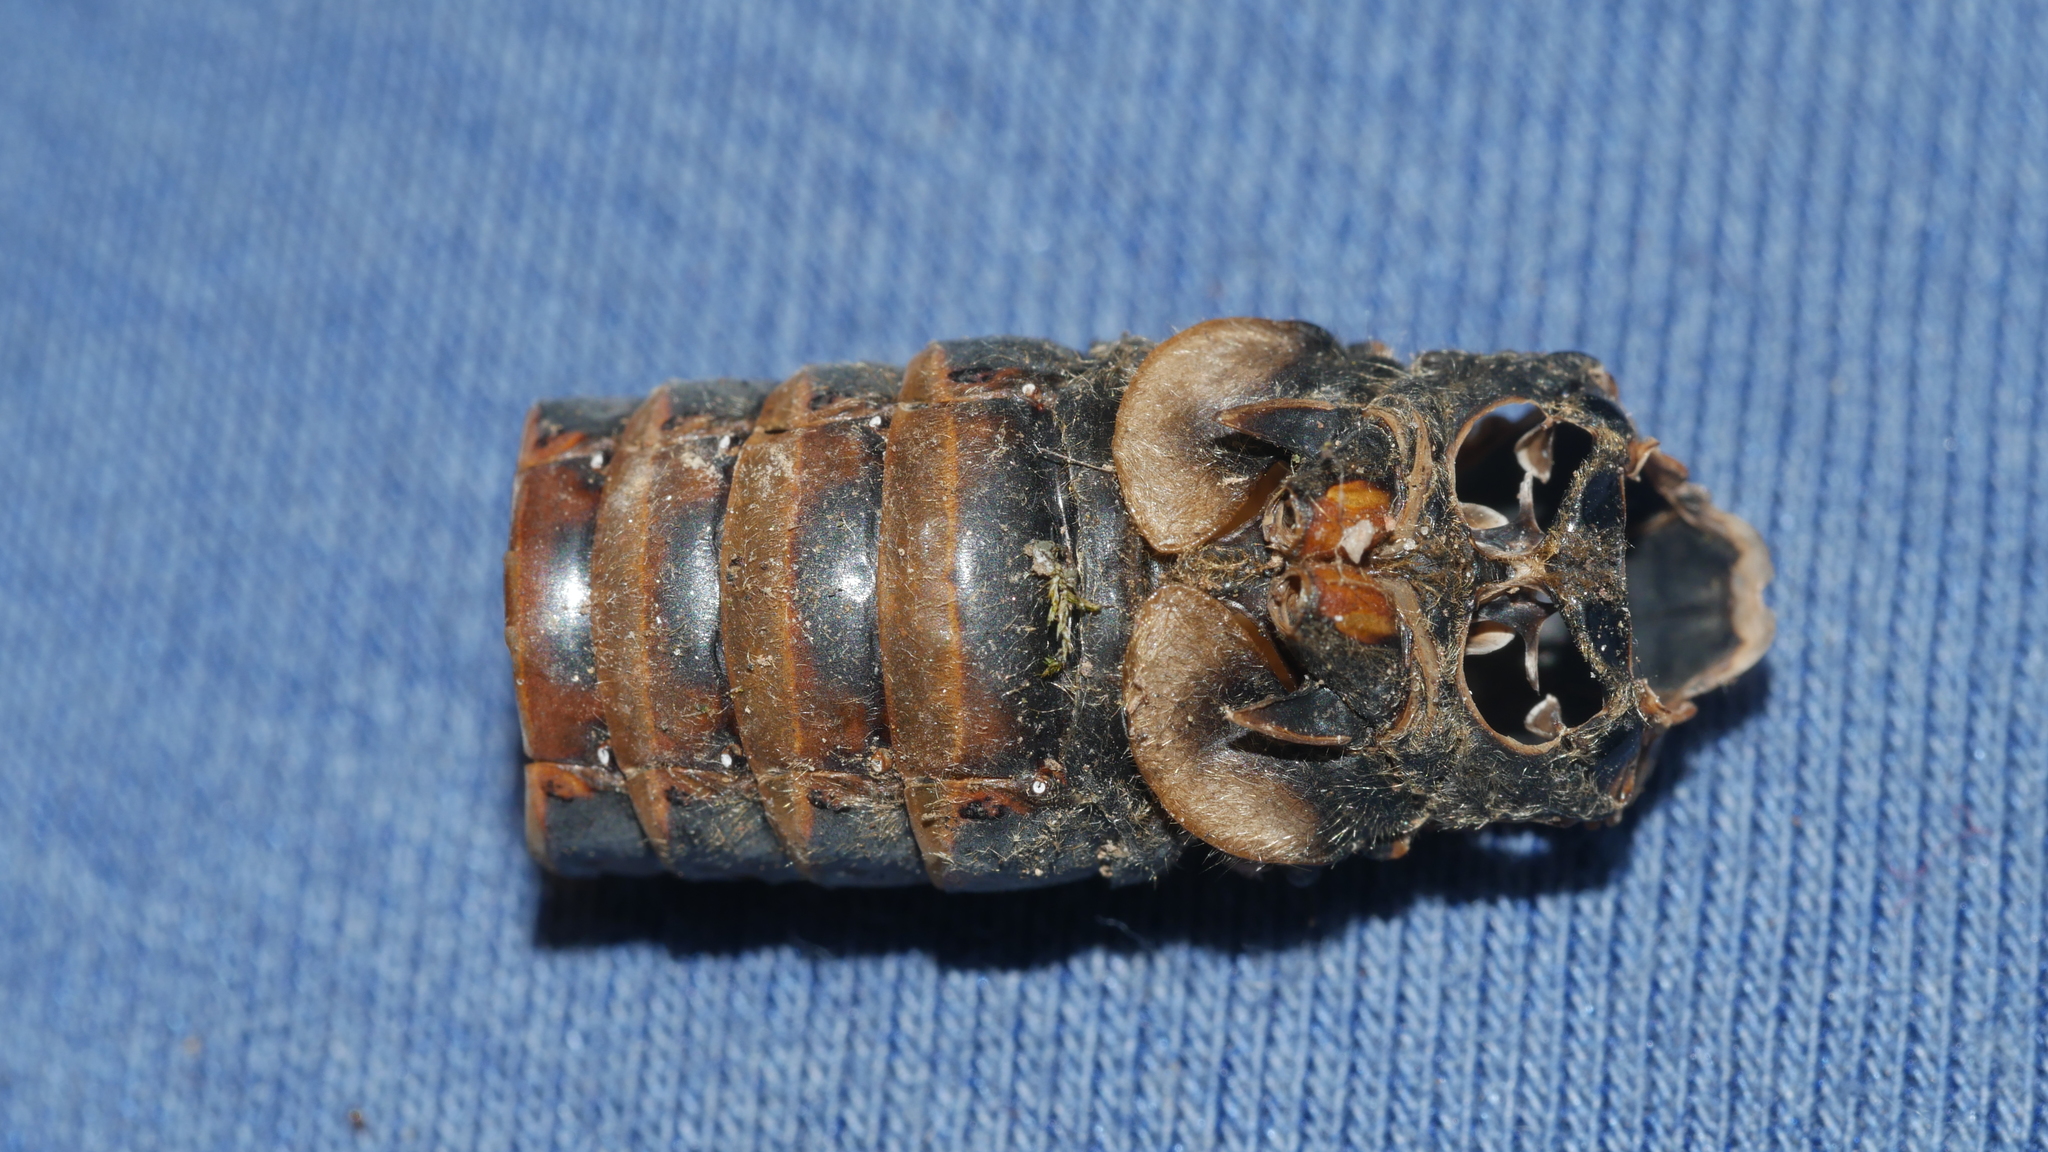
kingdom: Animalia
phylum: Arthropoda
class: Insecta
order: Hemiptera
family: Cicadidae
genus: Magicicada
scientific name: Magicicada septendecim
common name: Periodical cicada
